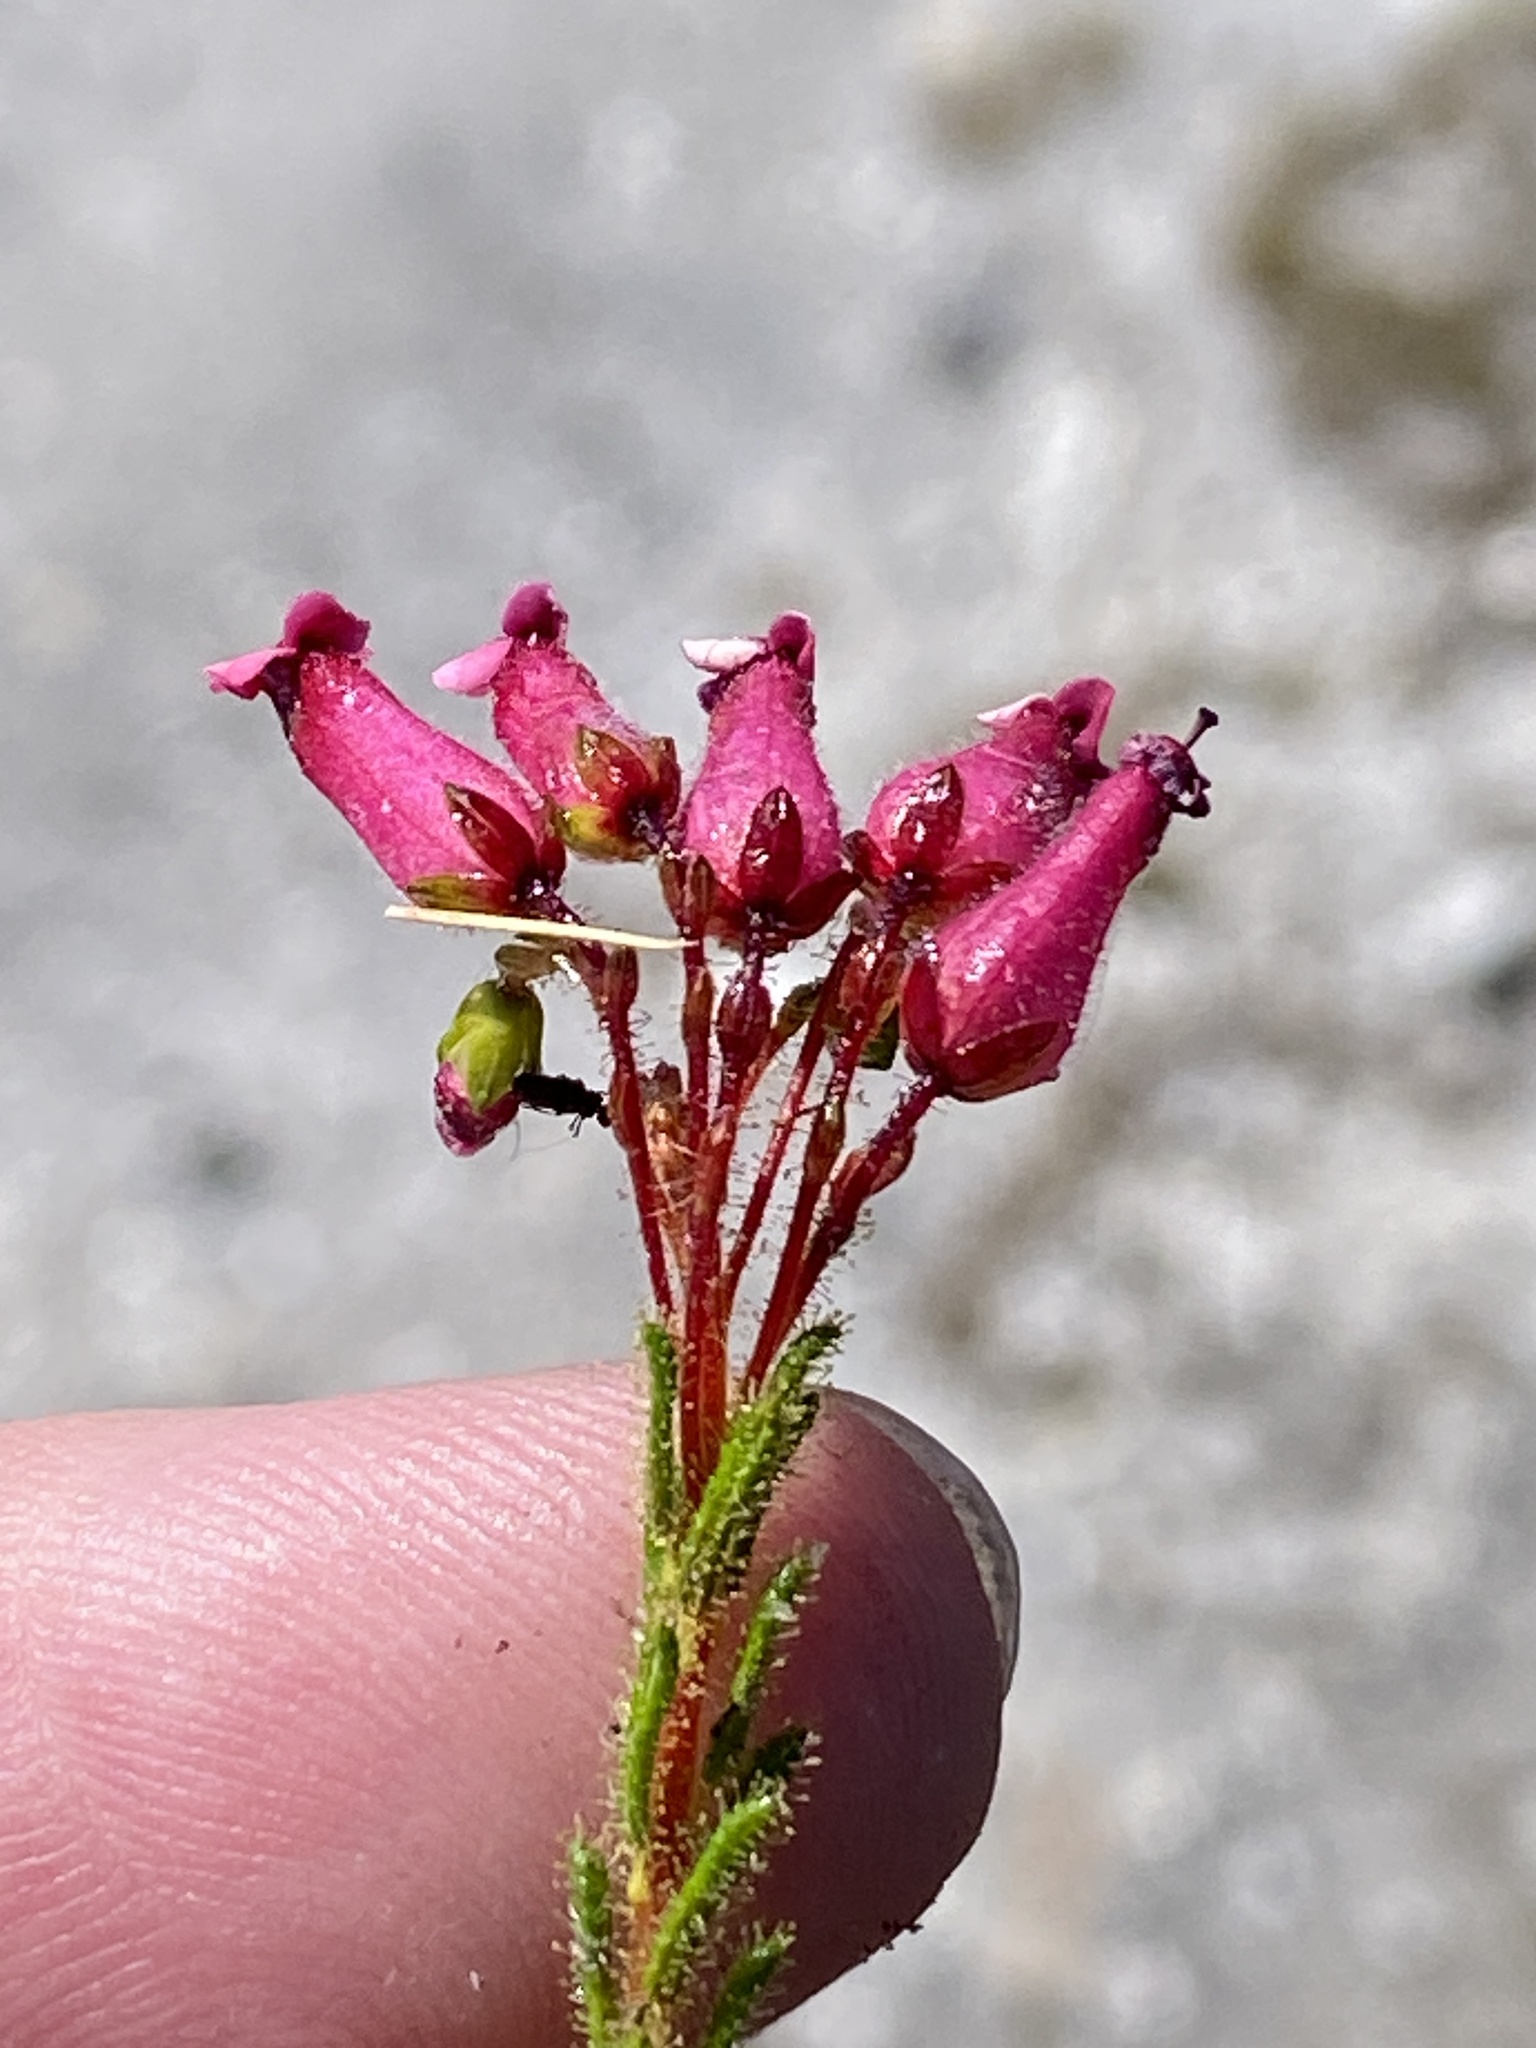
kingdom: Plantae
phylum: Tracheophyta
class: Magnoliopsida
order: Ericales
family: Ericaceae
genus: Erica
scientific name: Erica glutinosa
